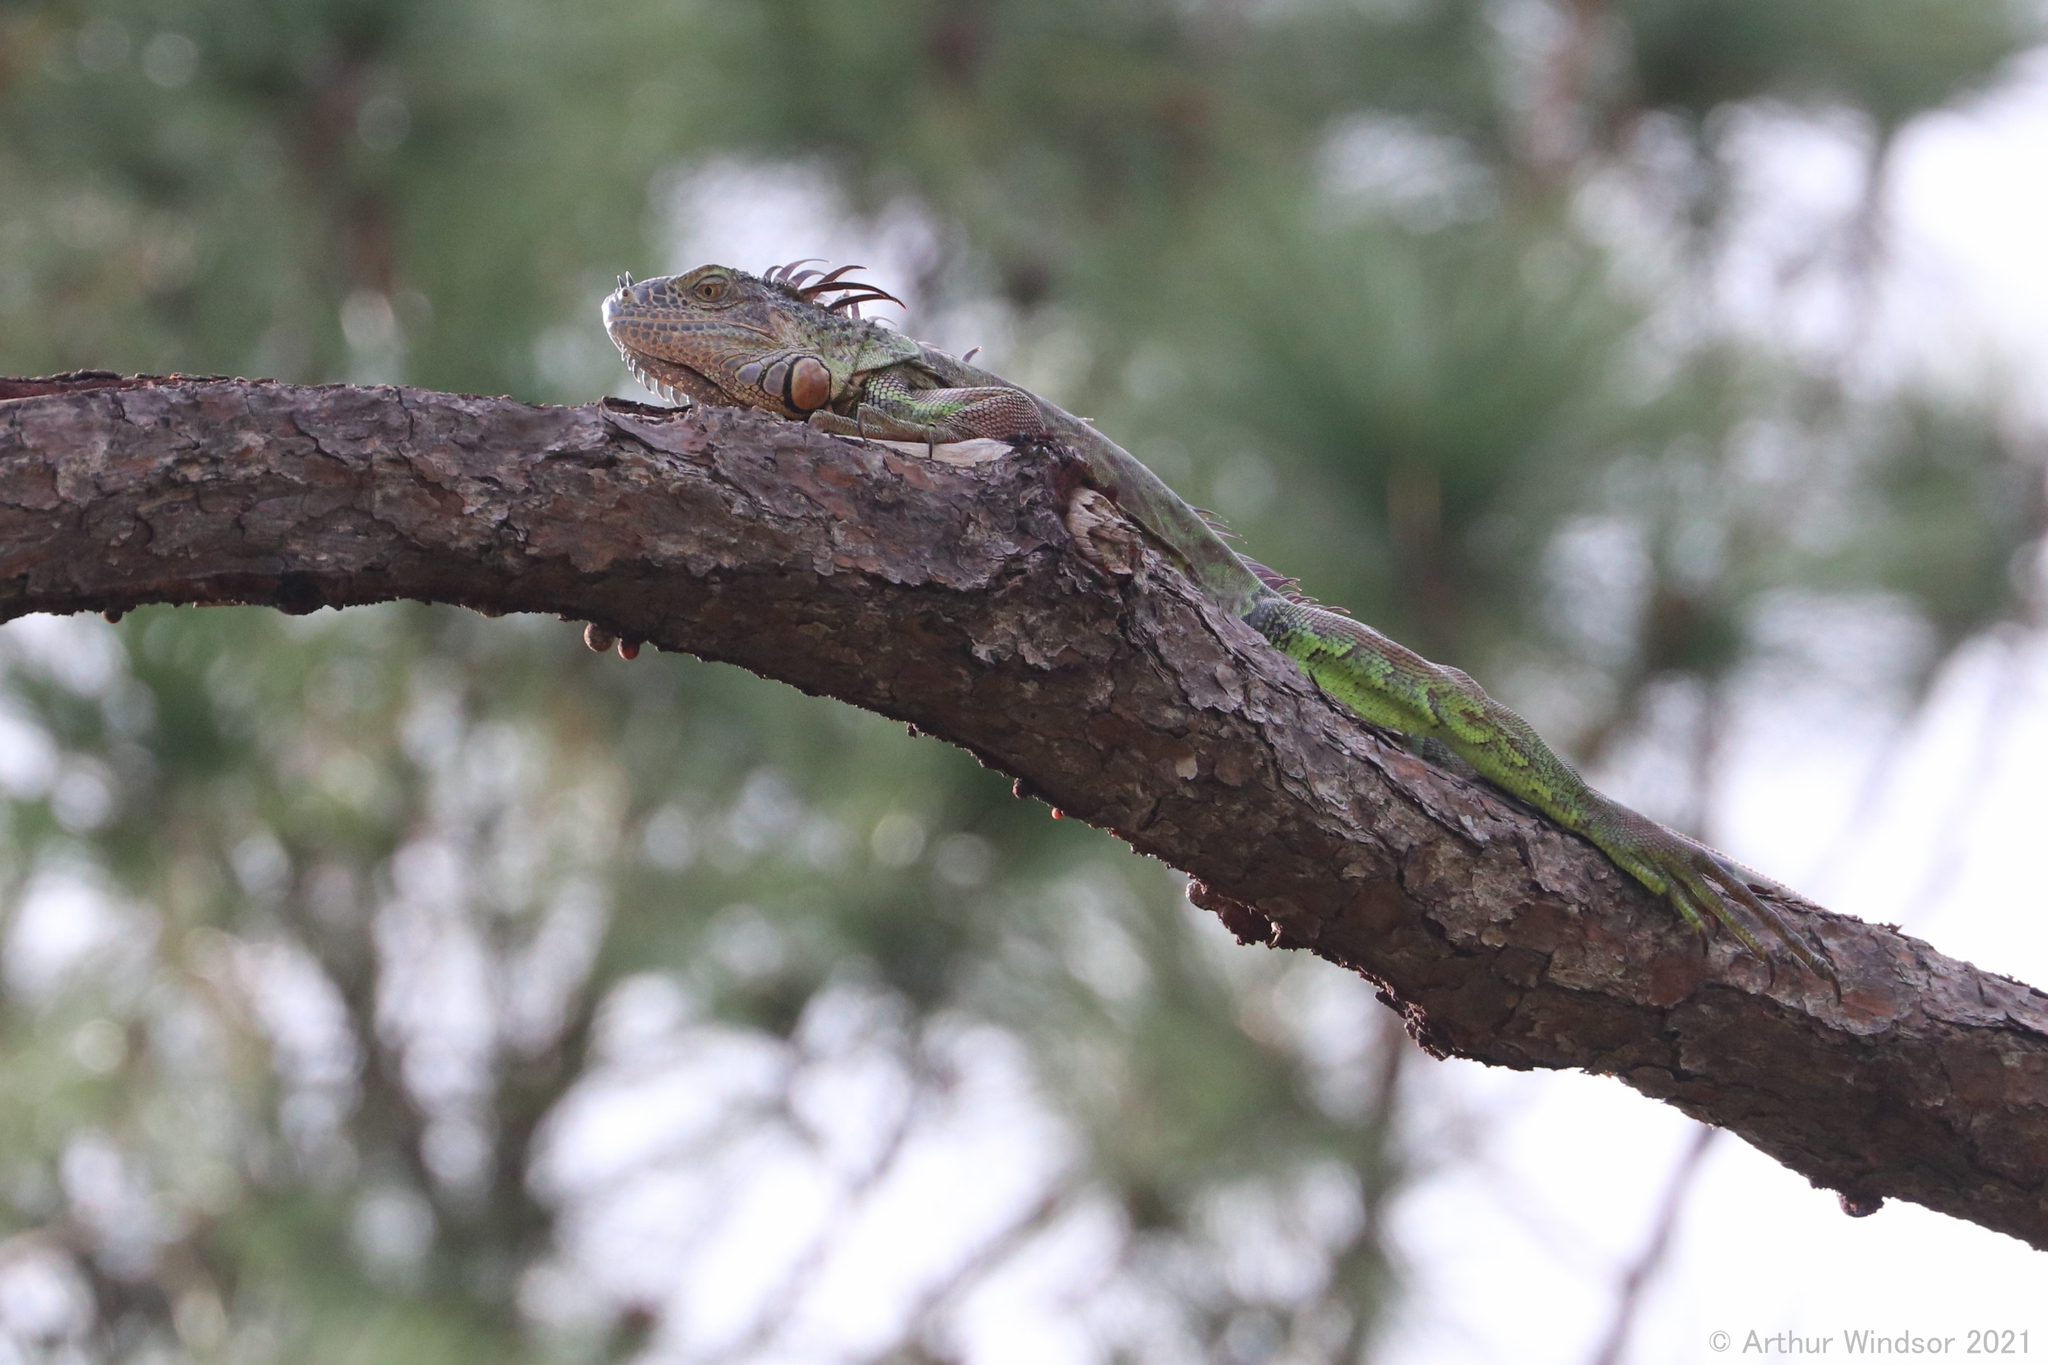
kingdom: Animalia
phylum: Chordata
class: Squamata
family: Iguanidae
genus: Iguana
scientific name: Iguana iguana
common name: Green iguana
